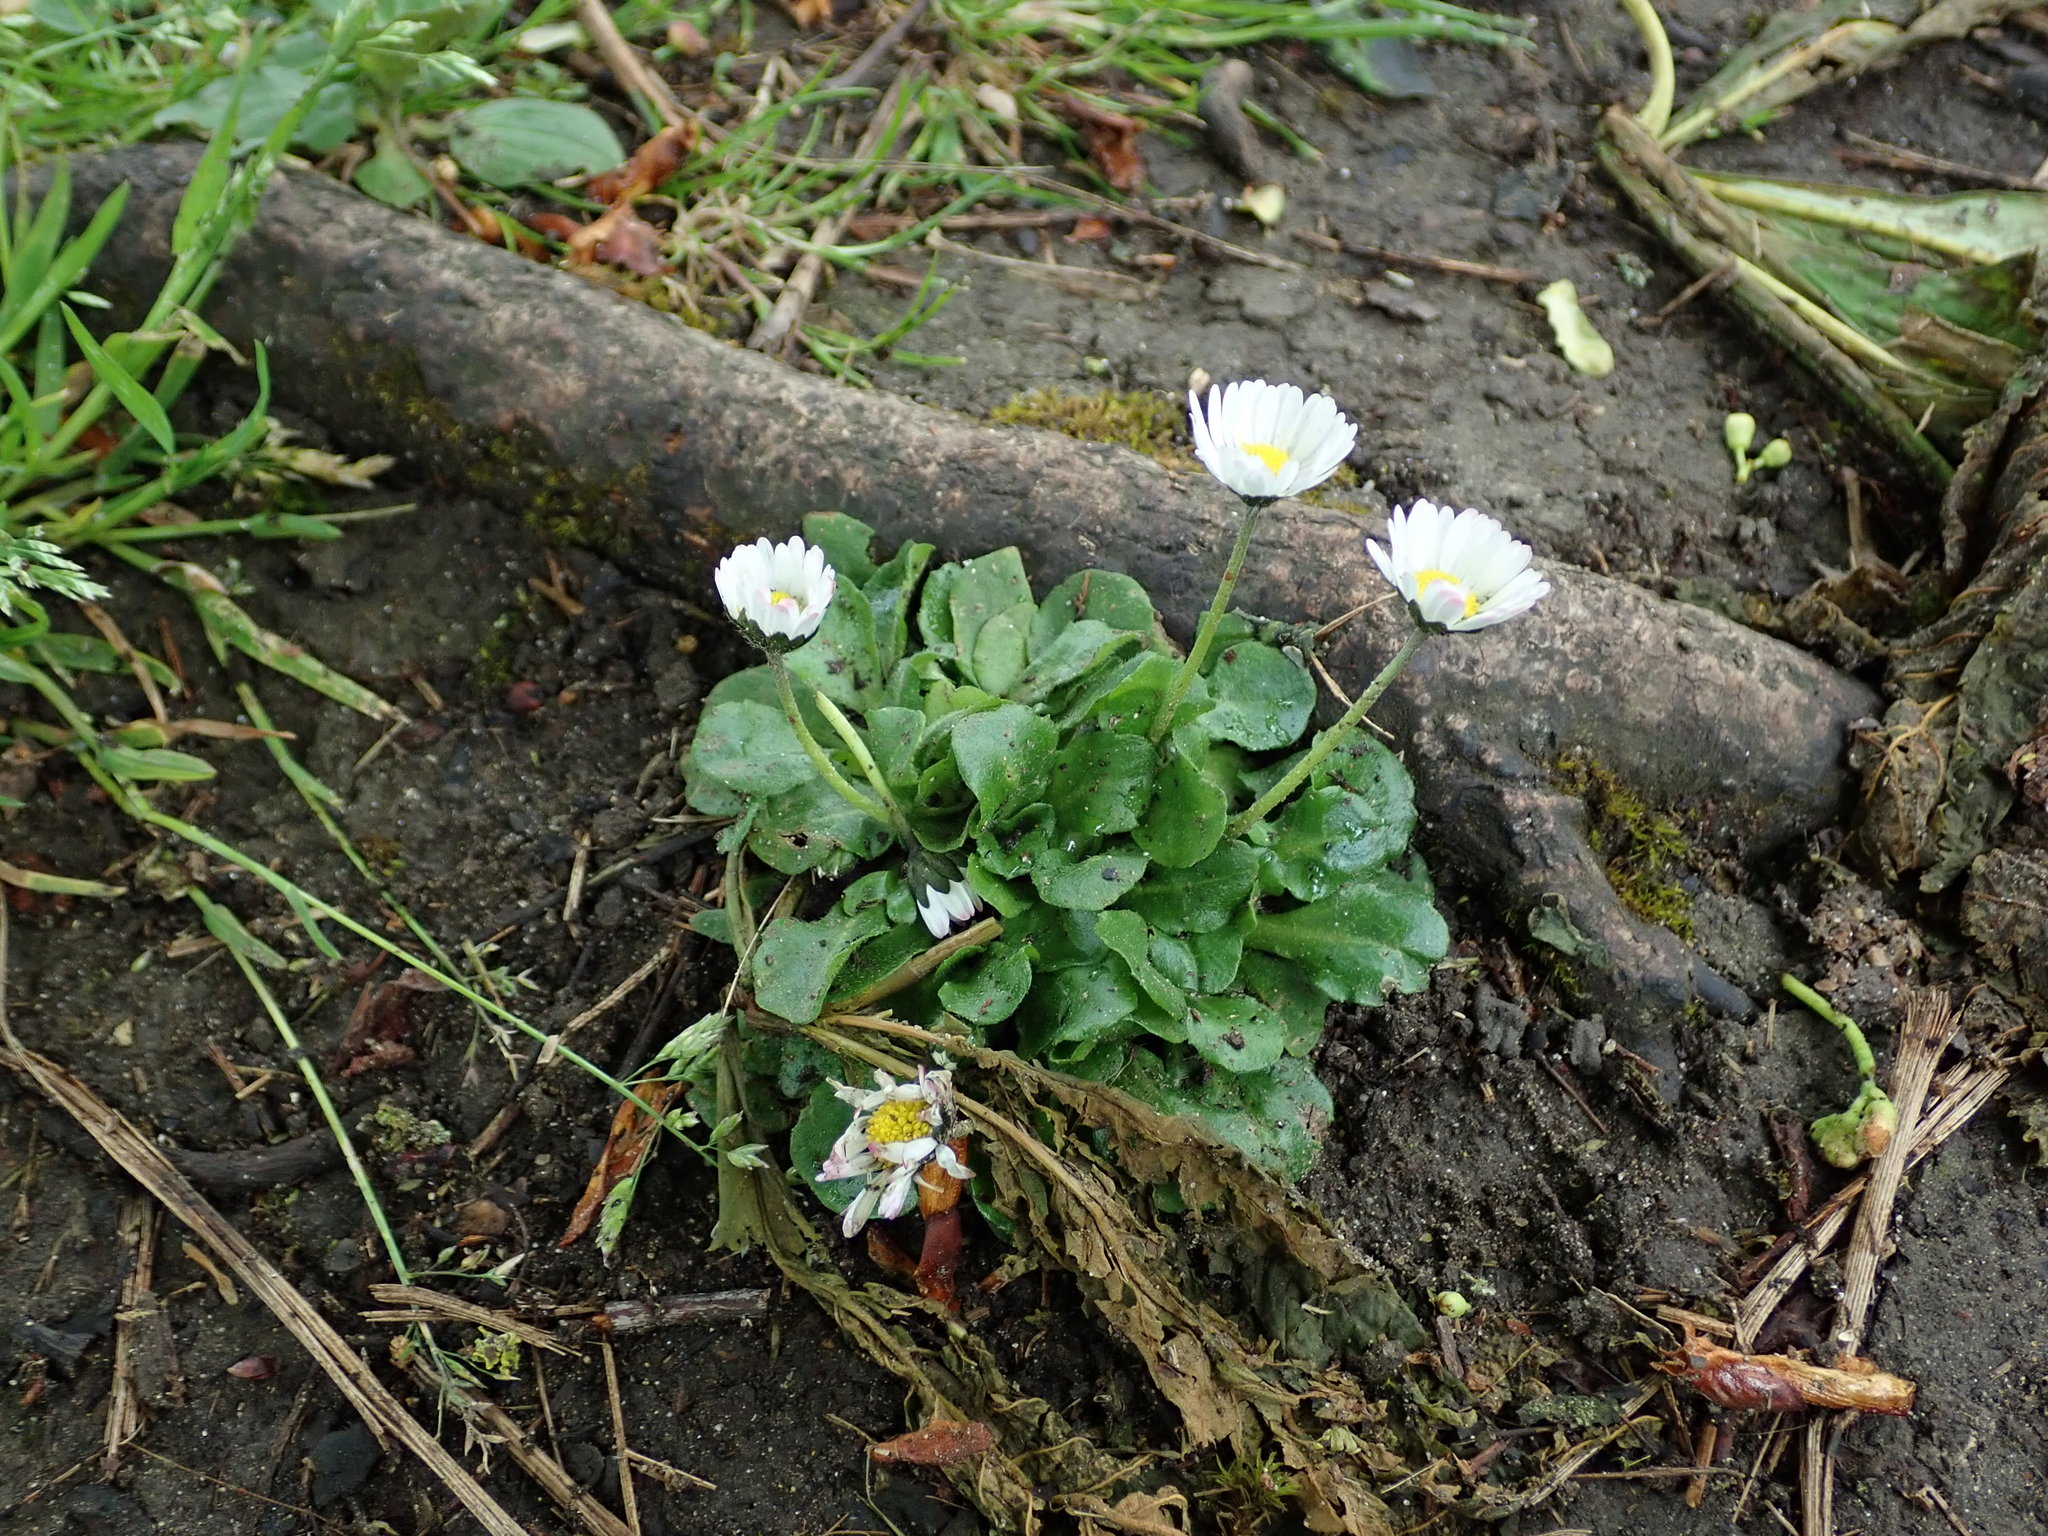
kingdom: Plantae
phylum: Tracheophyta
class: Magnoliopsida
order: Asterales
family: Asteraceae
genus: Bellis
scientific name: Bellis perennis
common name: Lawndaisy
